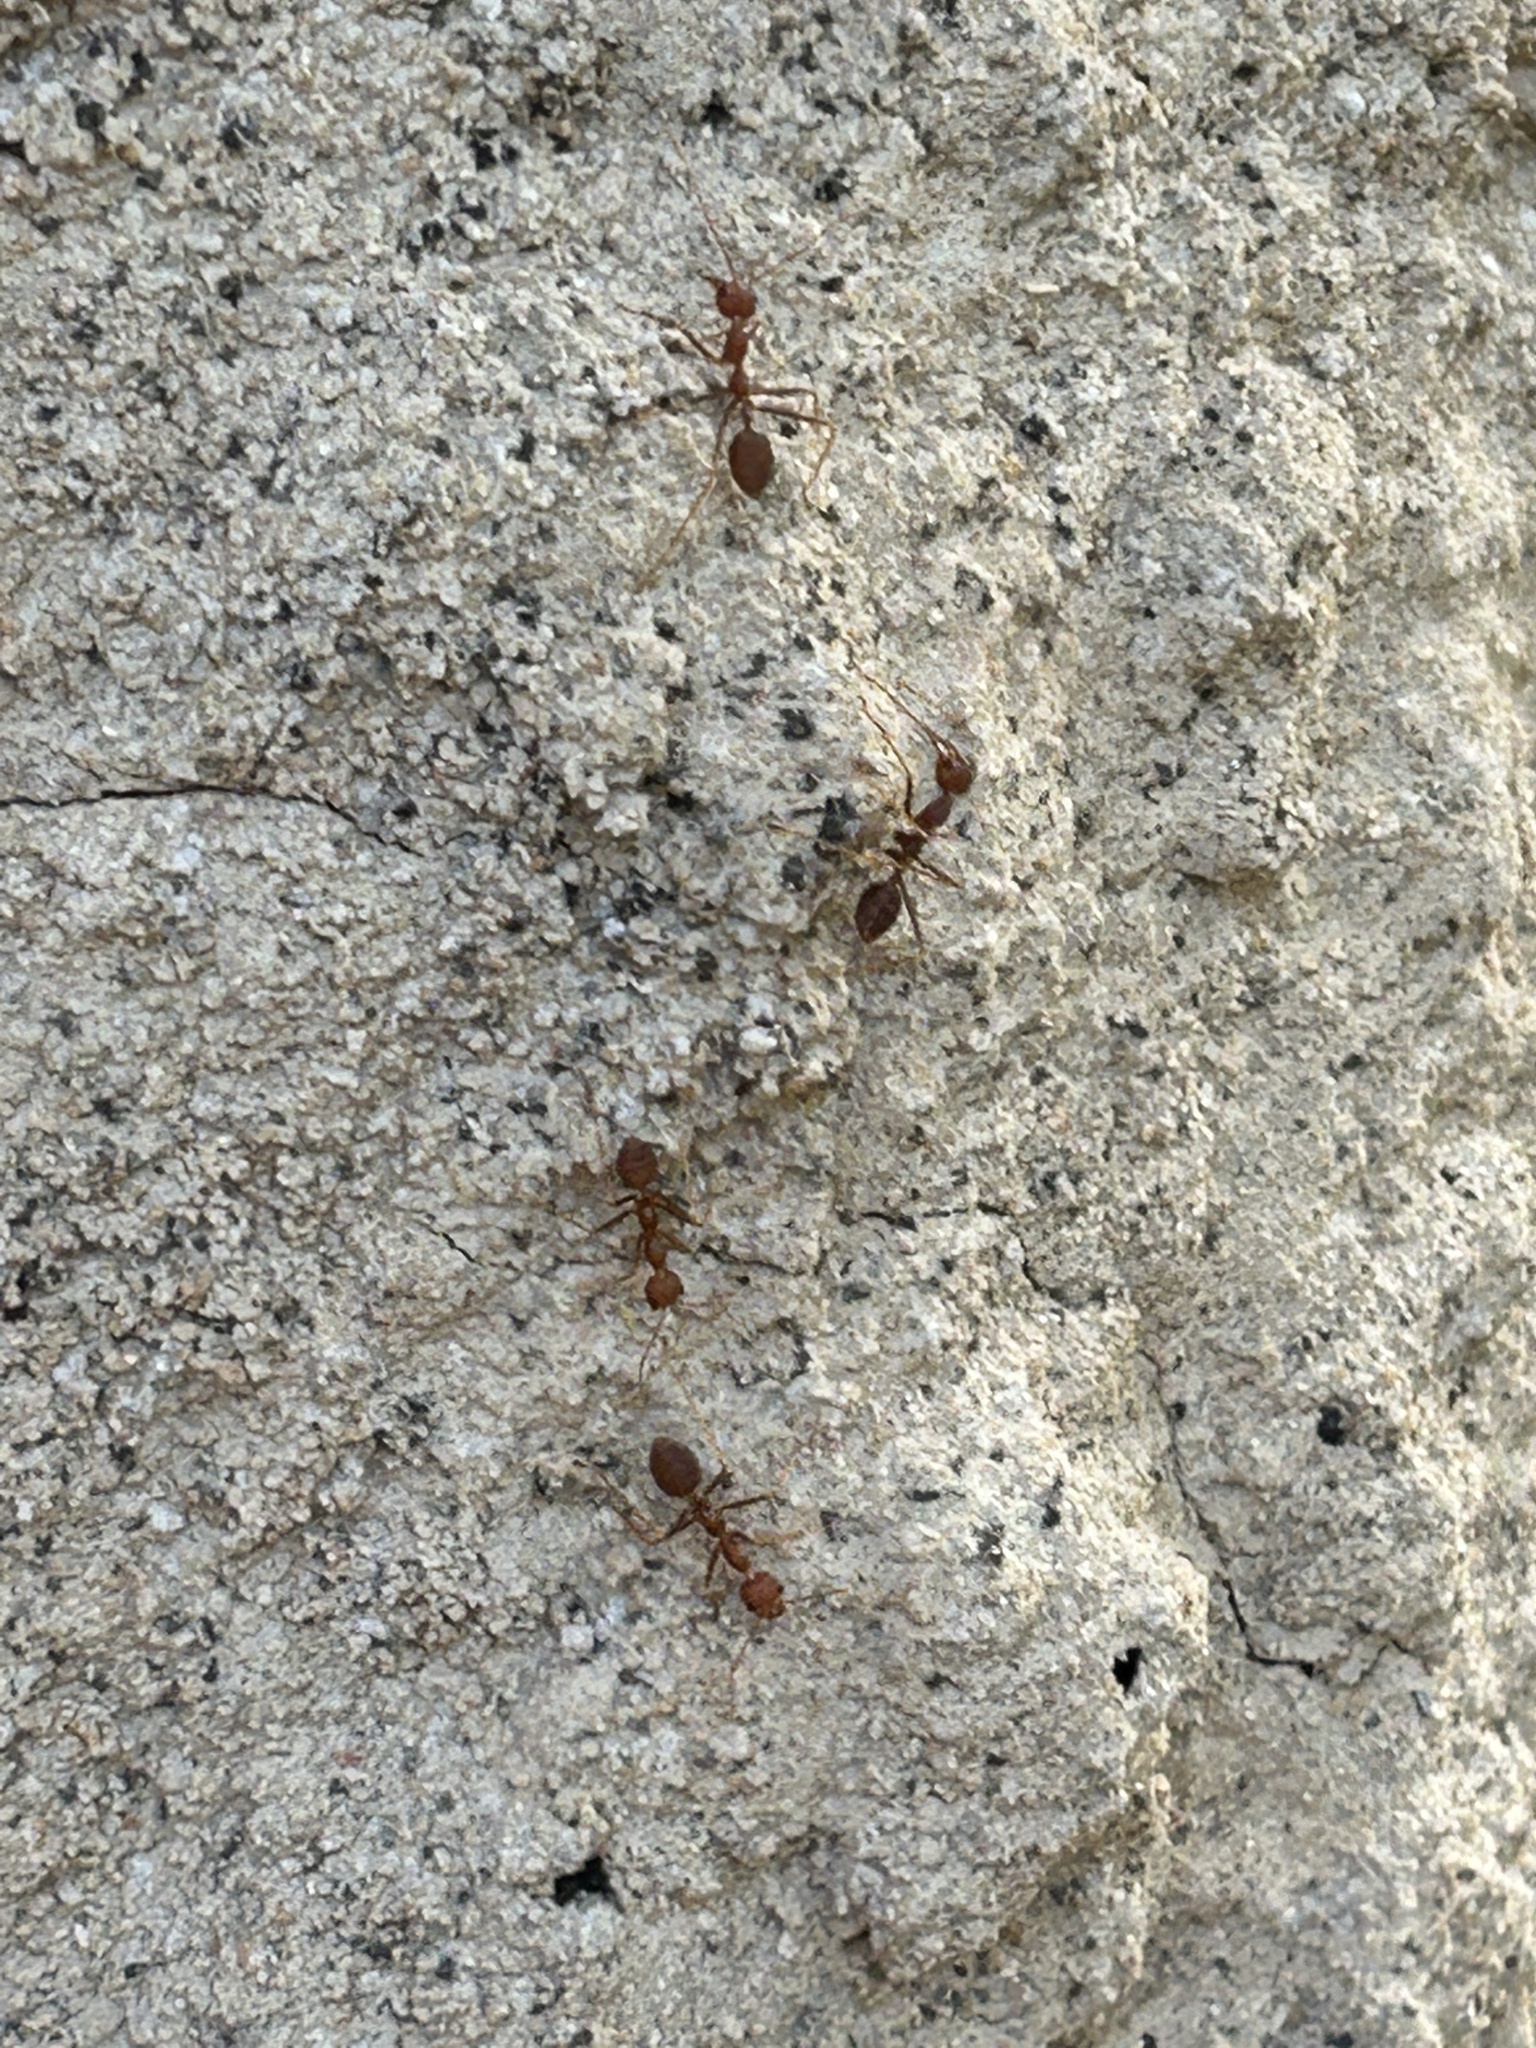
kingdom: Animalia
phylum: Arthropoda
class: Insecta
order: Hymenoptera
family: Formicidae
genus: Oecophylla
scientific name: Oecophylla smaragdina
